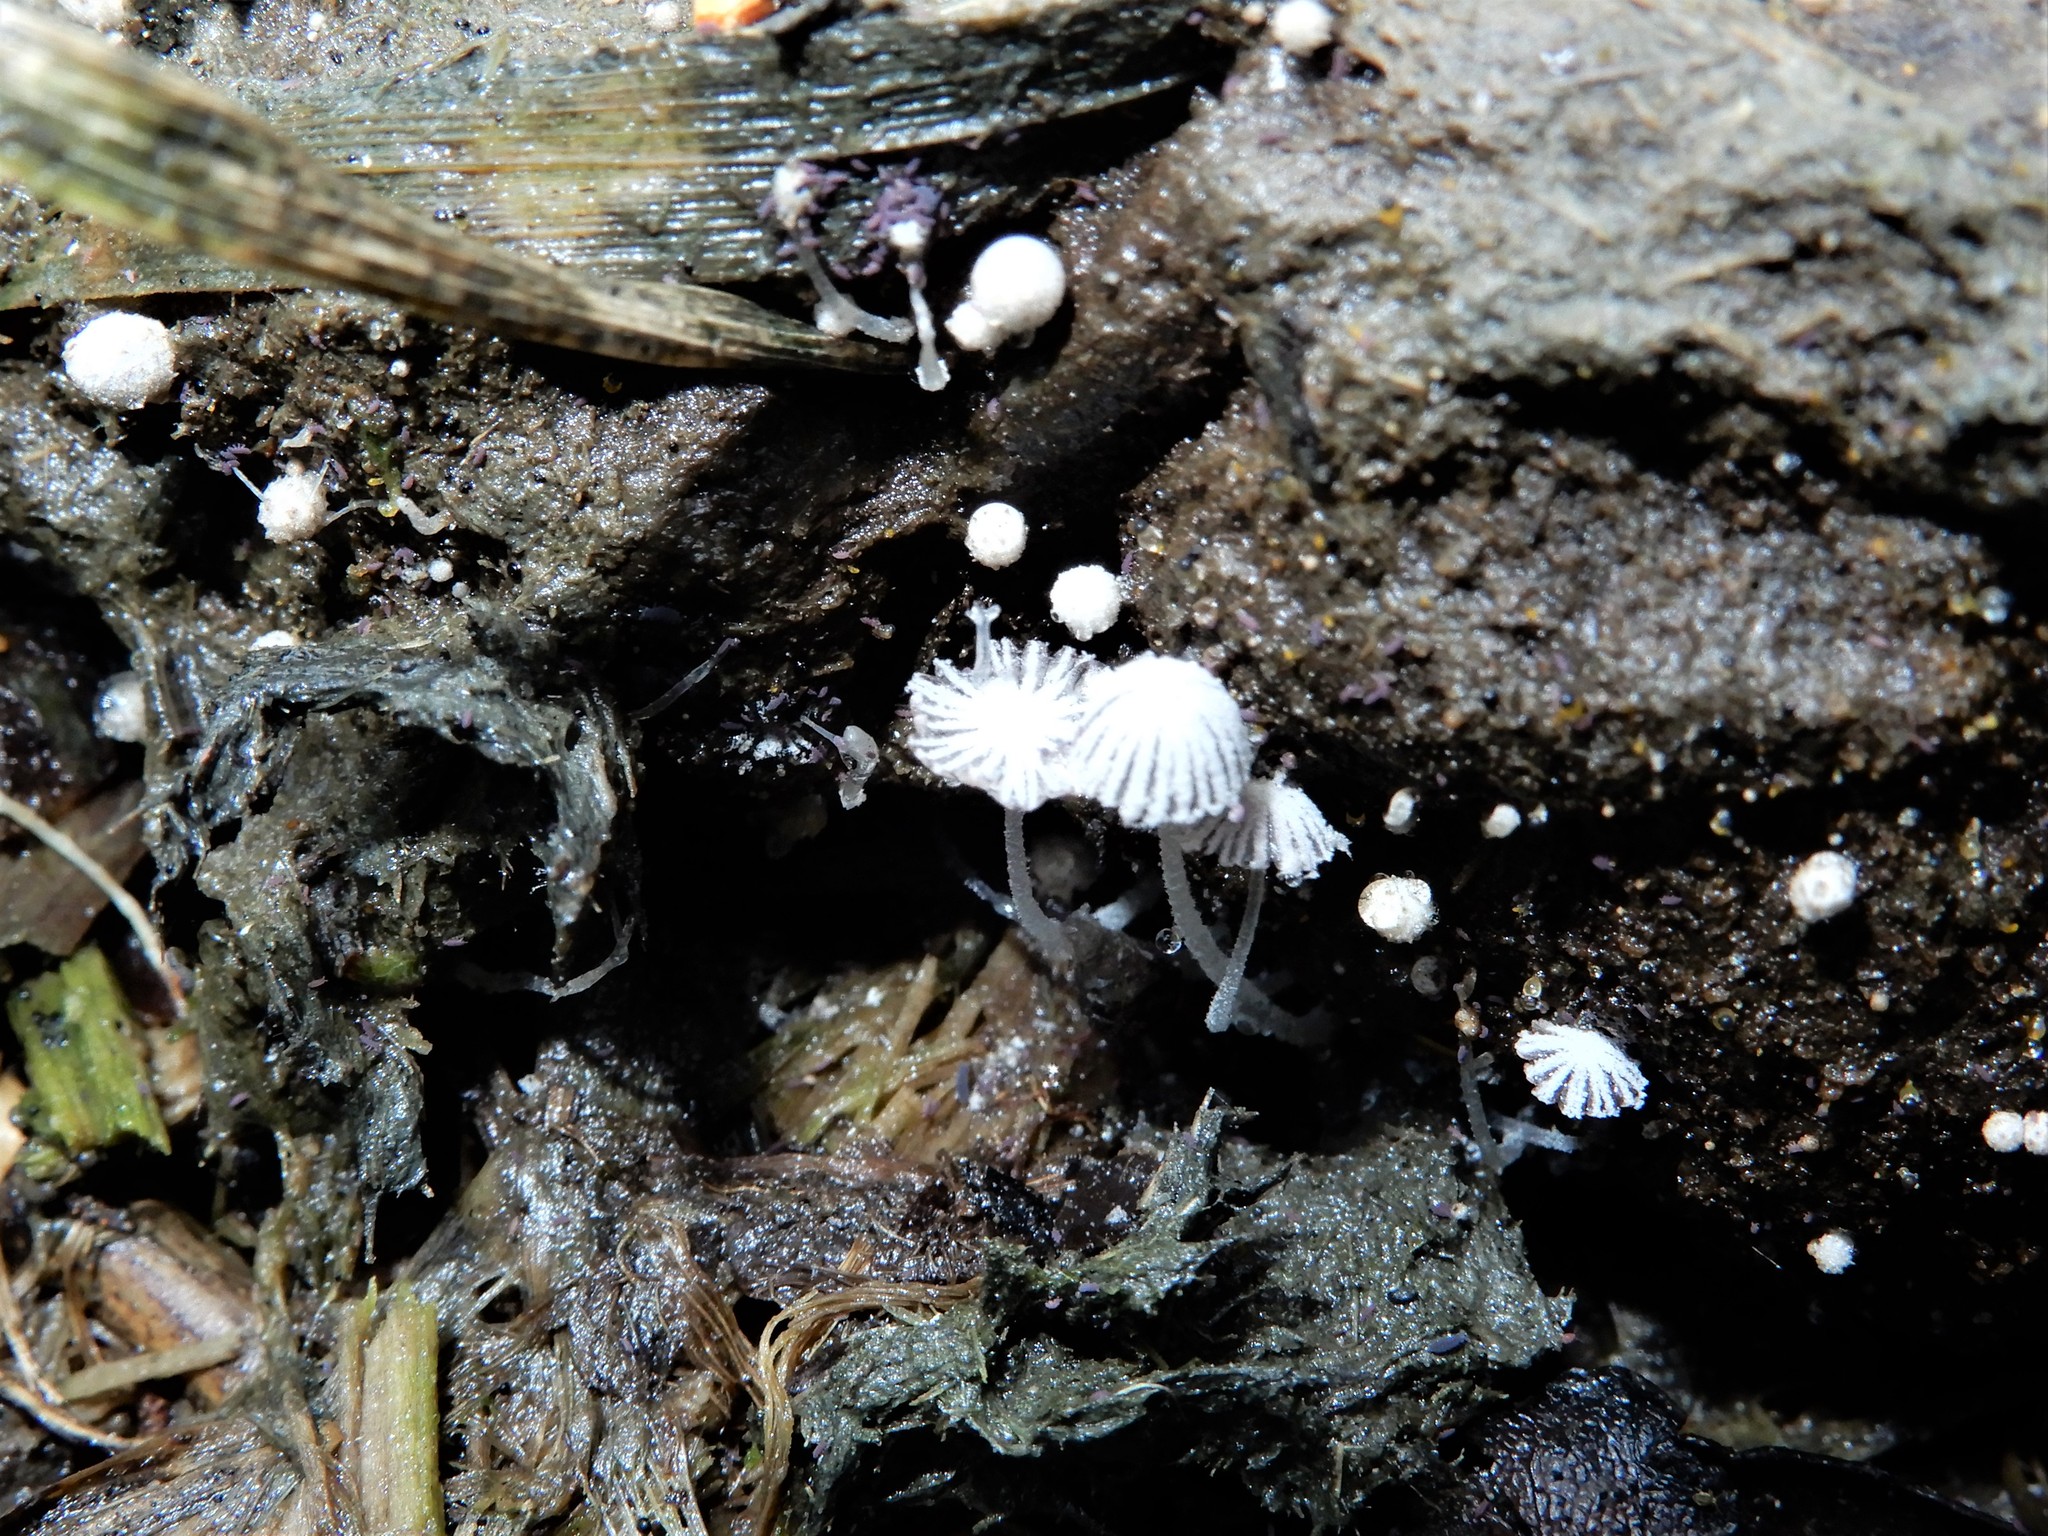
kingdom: Fungi
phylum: Basidiomycota
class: Agaricomycetes
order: Agaricales
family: Psathyrellaceae
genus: Coprinopsis
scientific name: Coprinopsis stercorea
